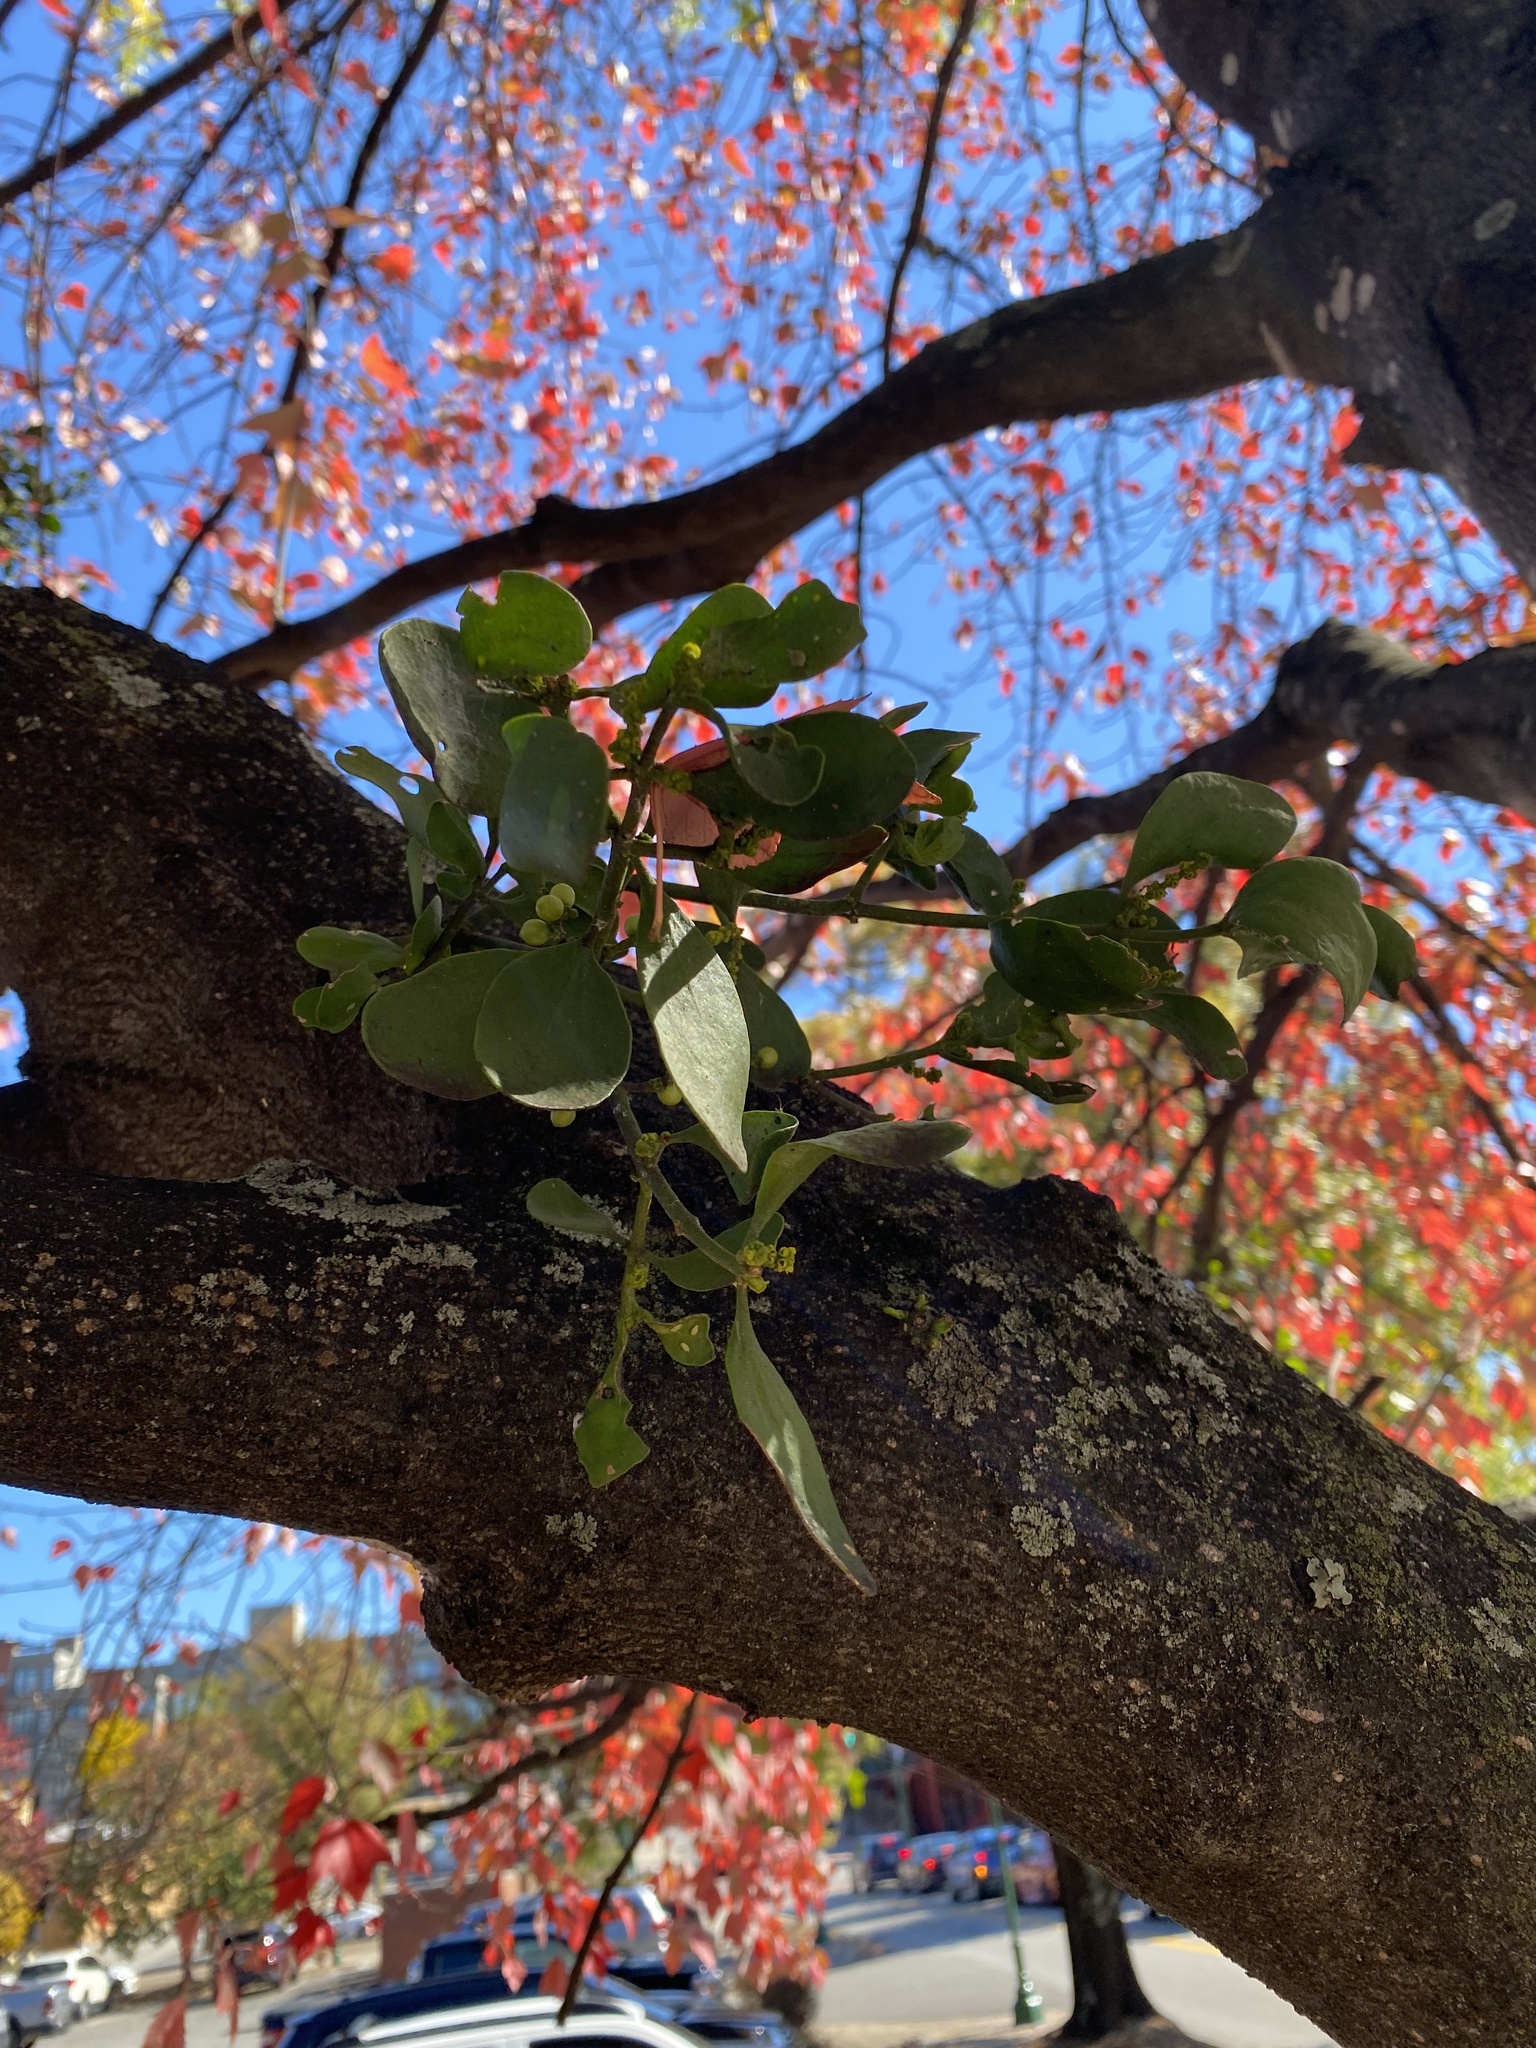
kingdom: Plantae
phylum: Tracheophyta
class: Magnoliopsida
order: Santalales
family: Viscaceae
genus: Phoradendron
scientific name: Phoradendron leucarpum
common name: Pacific mistletoe
